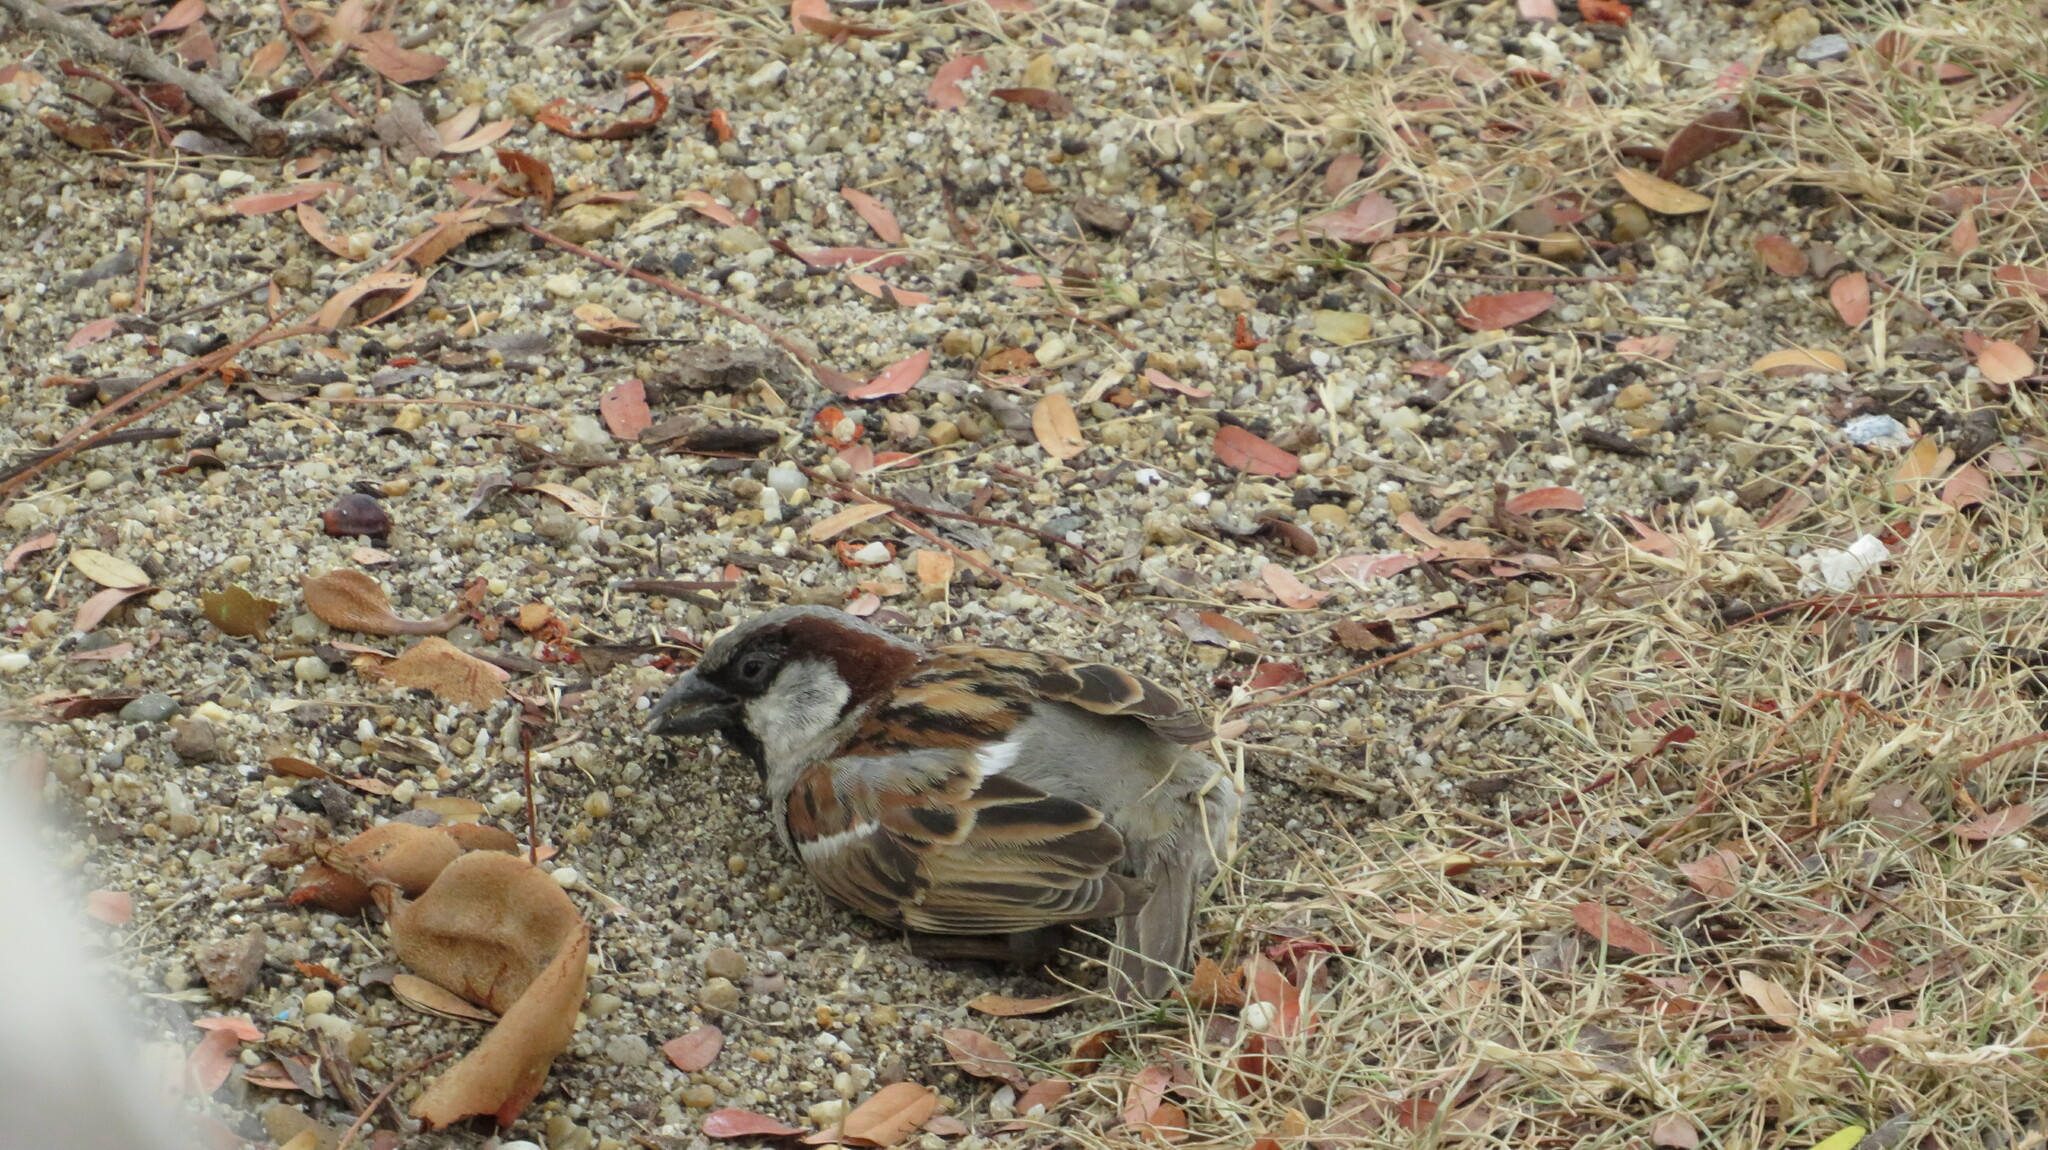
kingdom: Animalia
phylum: Chordata
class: Aves
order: Passeriformes
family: Passeridae
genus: Passer
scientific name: Passer domesticus
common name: House sparrow
